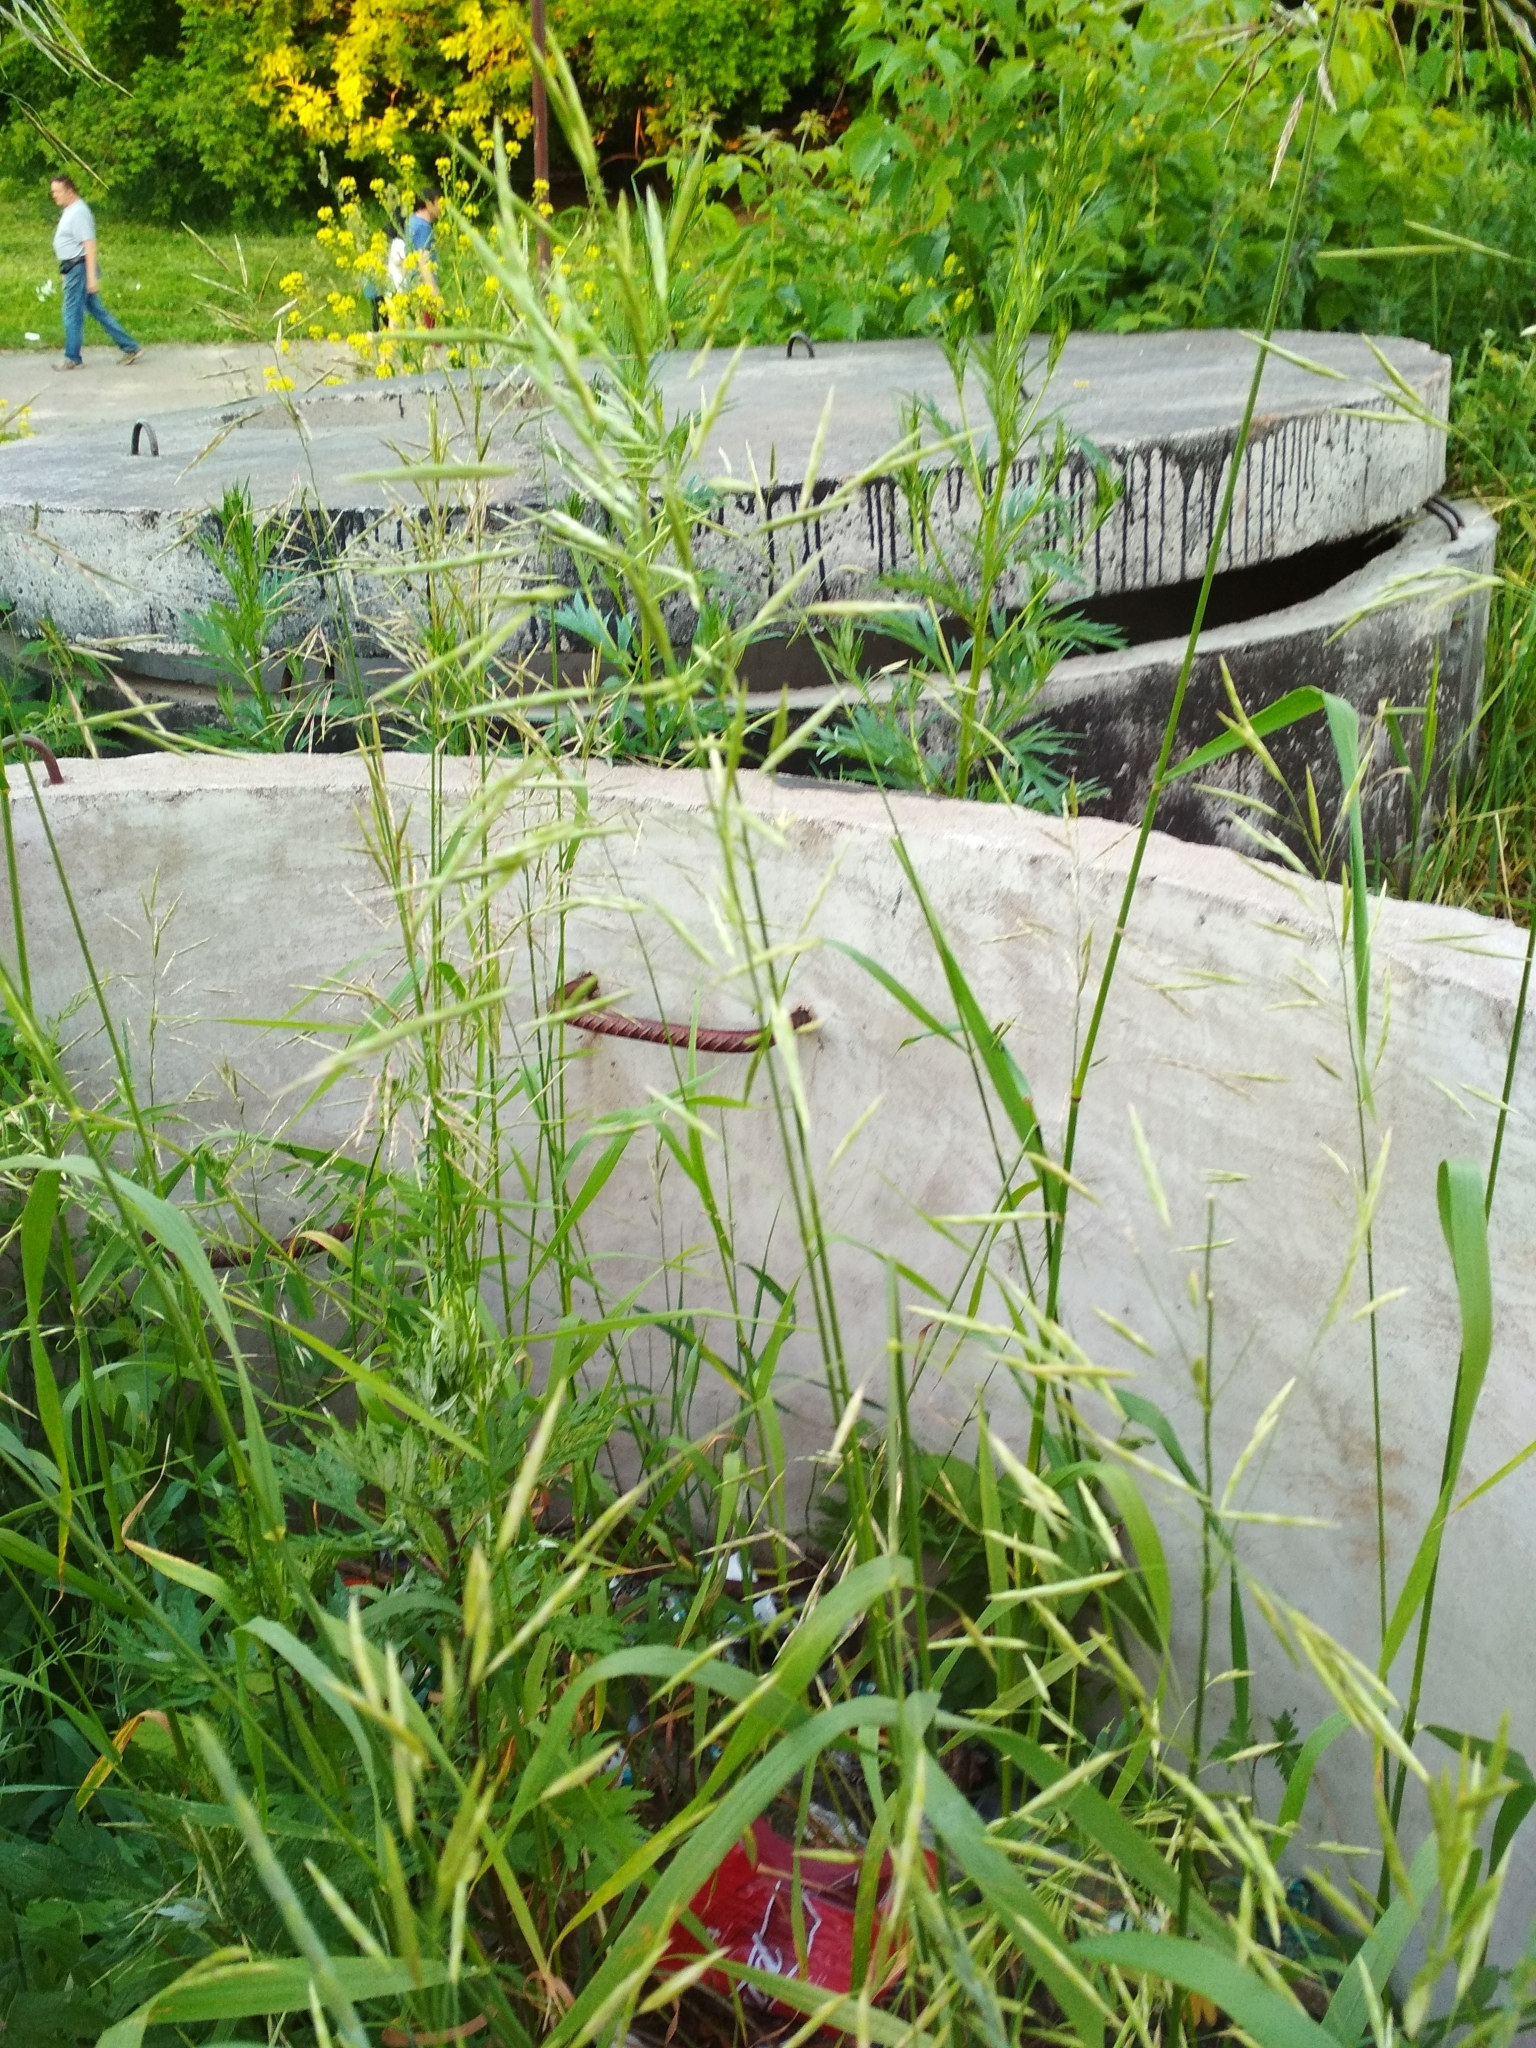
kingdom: Plantae
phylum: Tracheophyta
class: Liliopsida
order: Poales
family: Poaceae
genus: Bromus
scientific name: Bromus inermis
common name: Smooth brome
